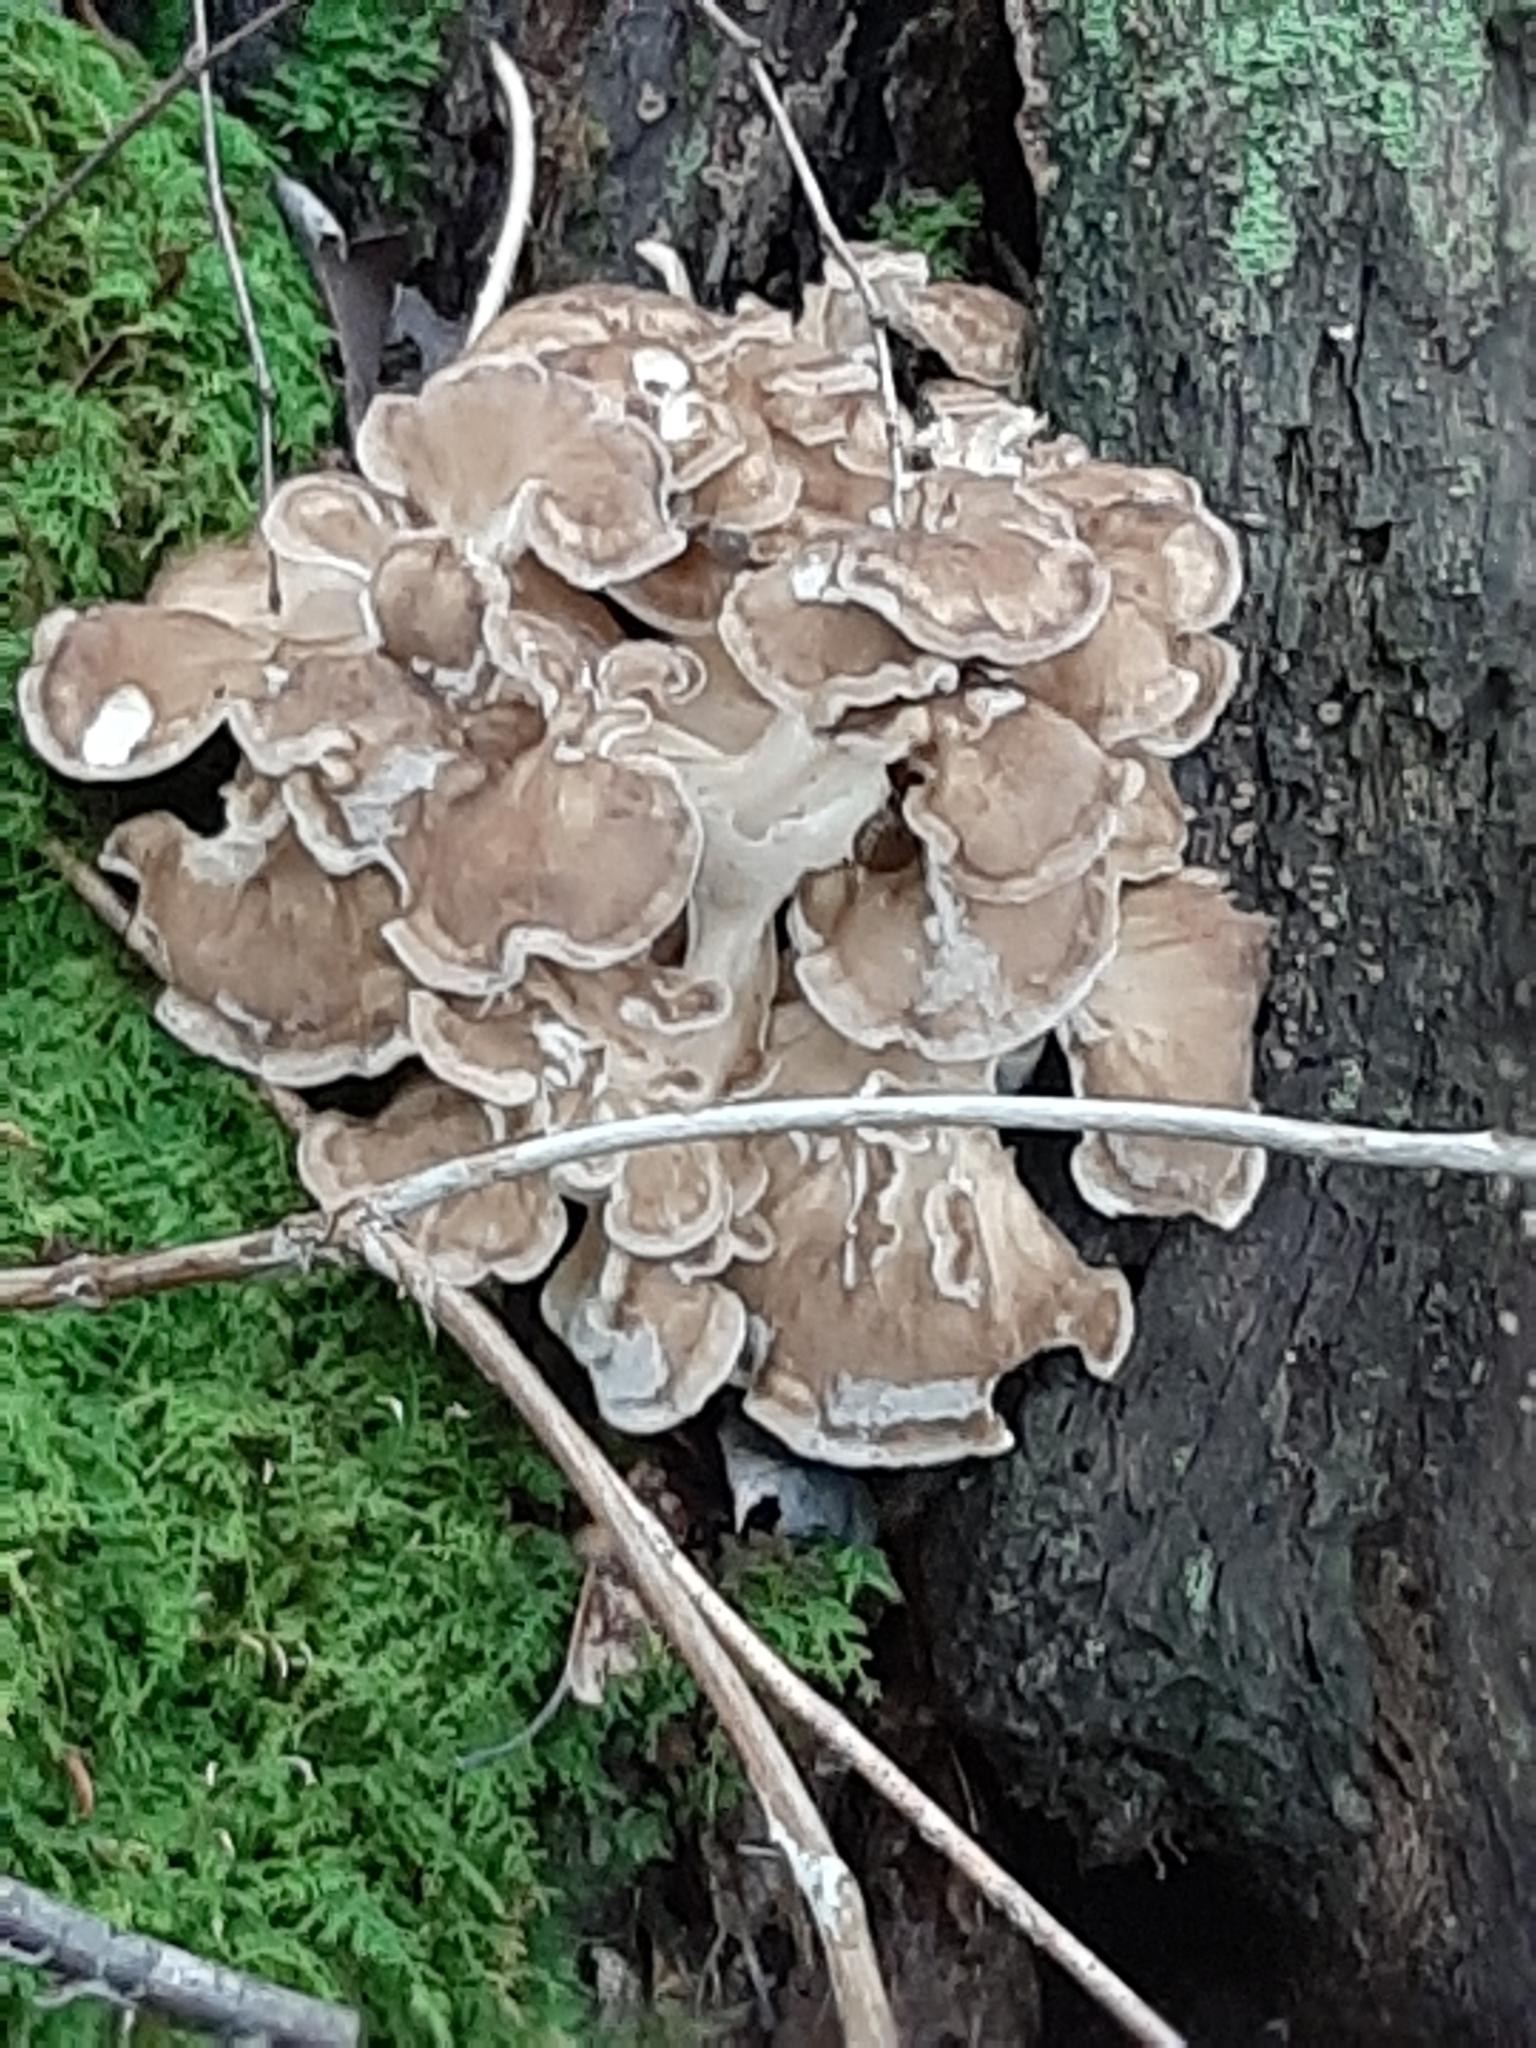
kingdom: Fungi
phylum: Basidiomycota
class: Agaricomycetes
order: Polyporales
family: Grifolaceae
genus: Grifola
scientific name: Grifola frondosa
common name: Hen of the woods
